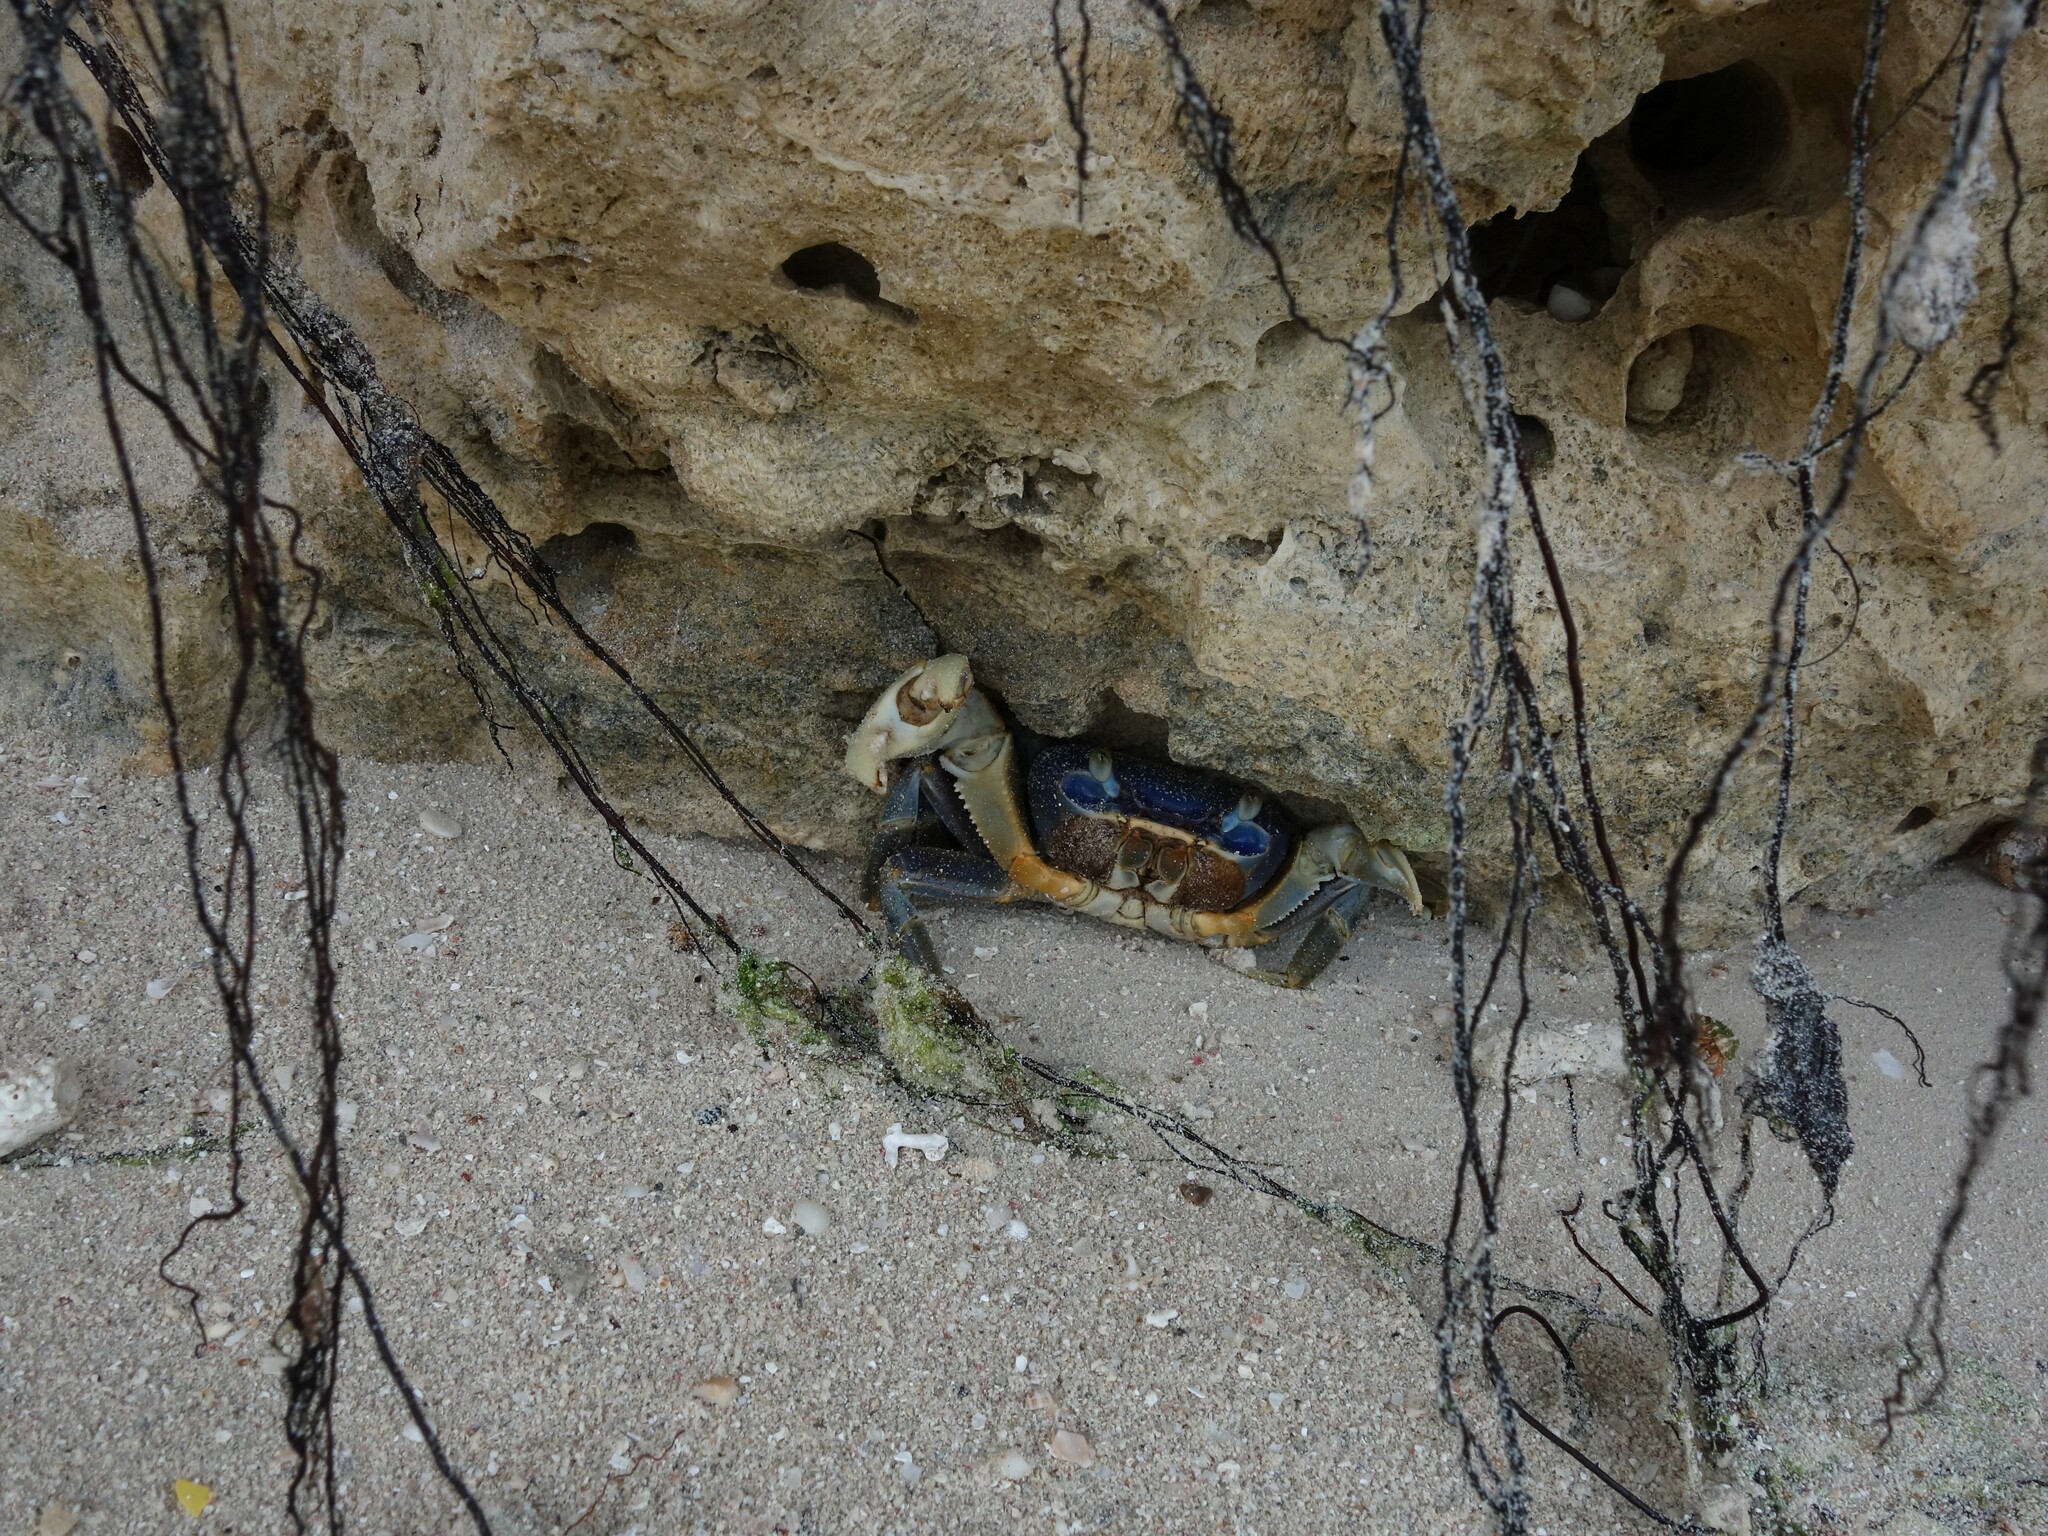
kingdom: Animalia
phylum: Arthropoda
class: Malacostraca
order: Decapoda
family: Gecarcinidae
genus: Cardisoma
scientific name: Cardisoma guanhumi
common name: Great land crab
